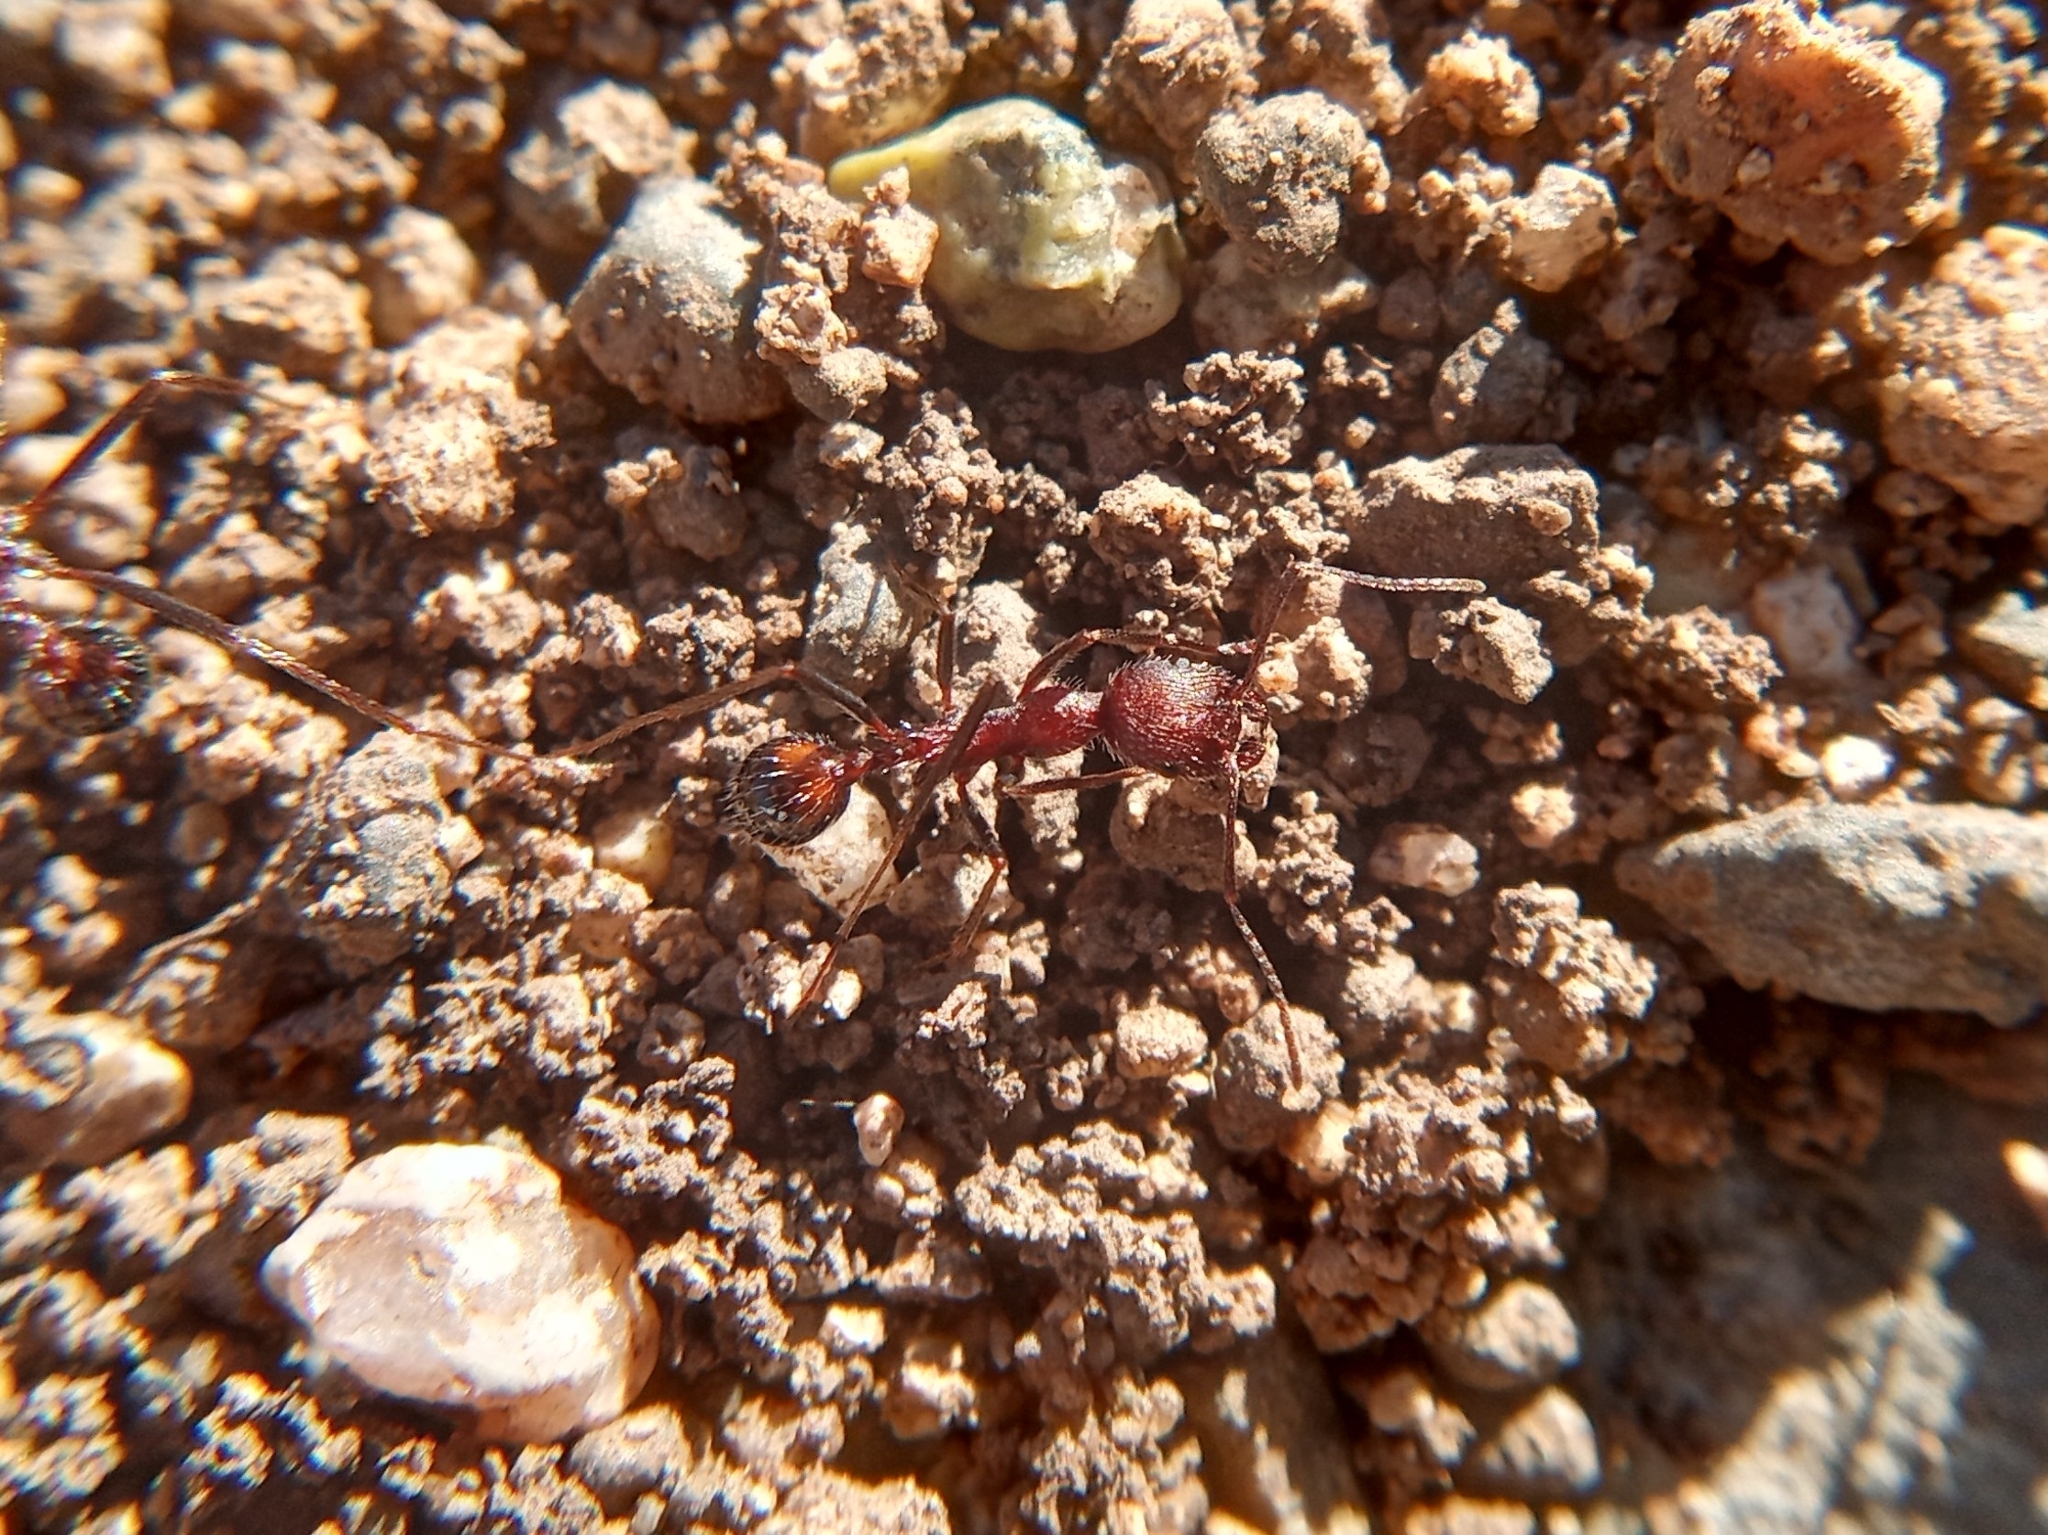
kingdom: Animalia
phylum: Arthropoda
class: Insecta
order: Hymenoptera
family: Formicidae
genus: Novomessor
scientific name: Novomessor albisetosa
